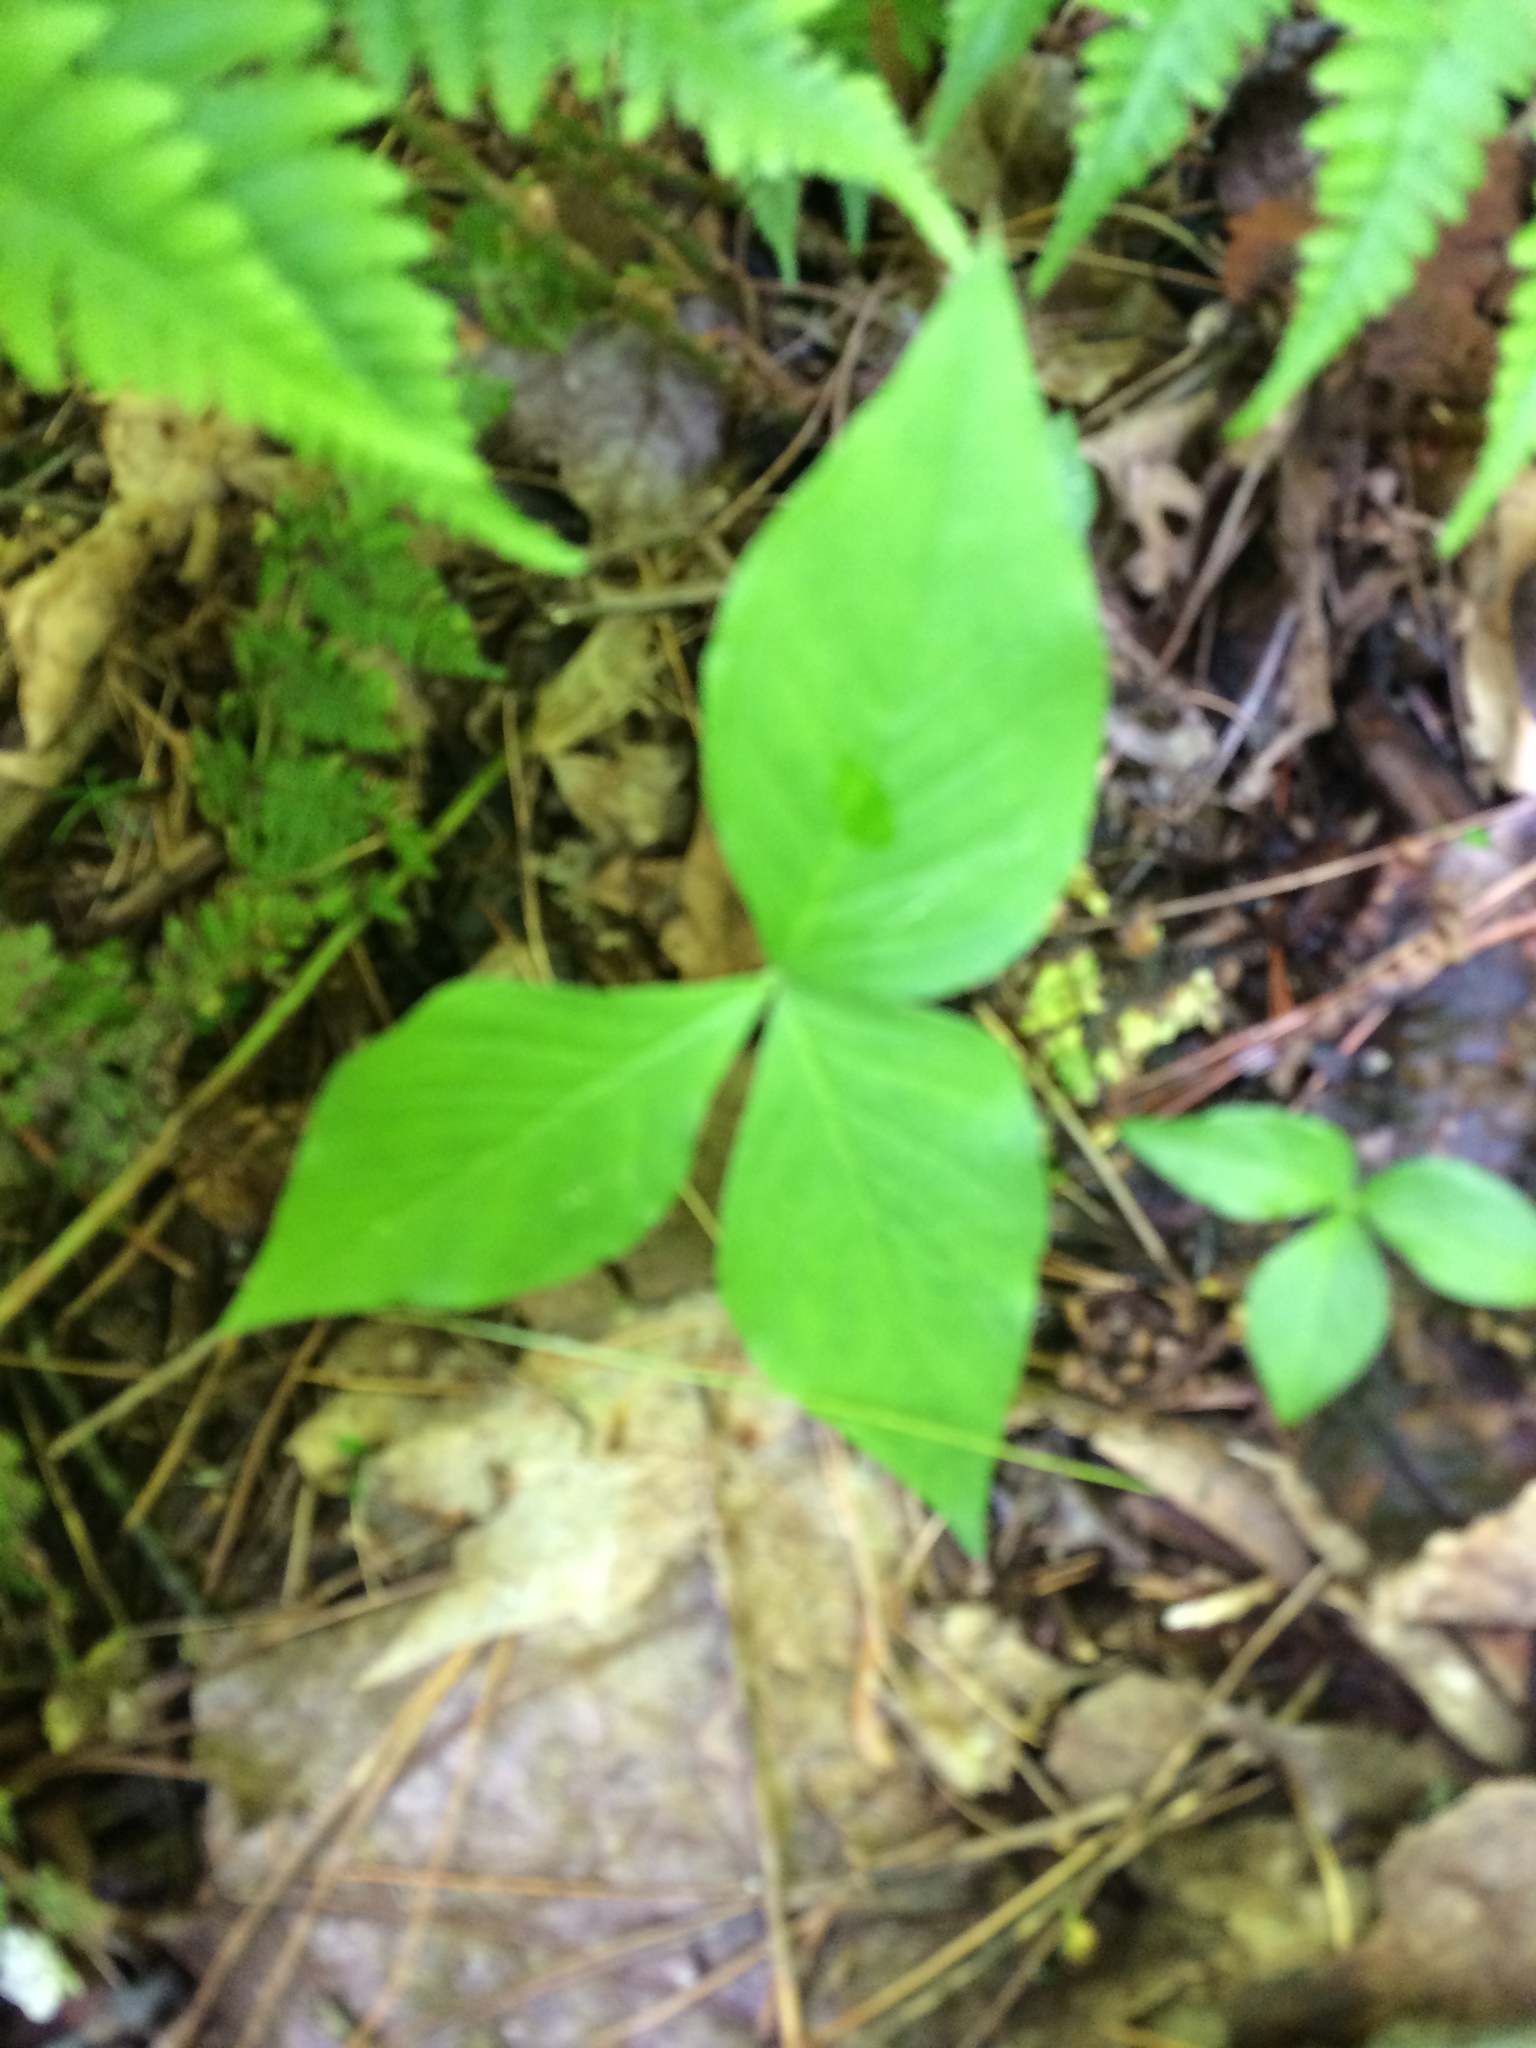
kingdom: Plantae
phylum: Tracheophyta
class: Liliopsida
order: Alismatales
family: Araceae
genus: Arisaema
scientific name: Arisaema triphyllum
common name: Jack-in-the-pulpit
